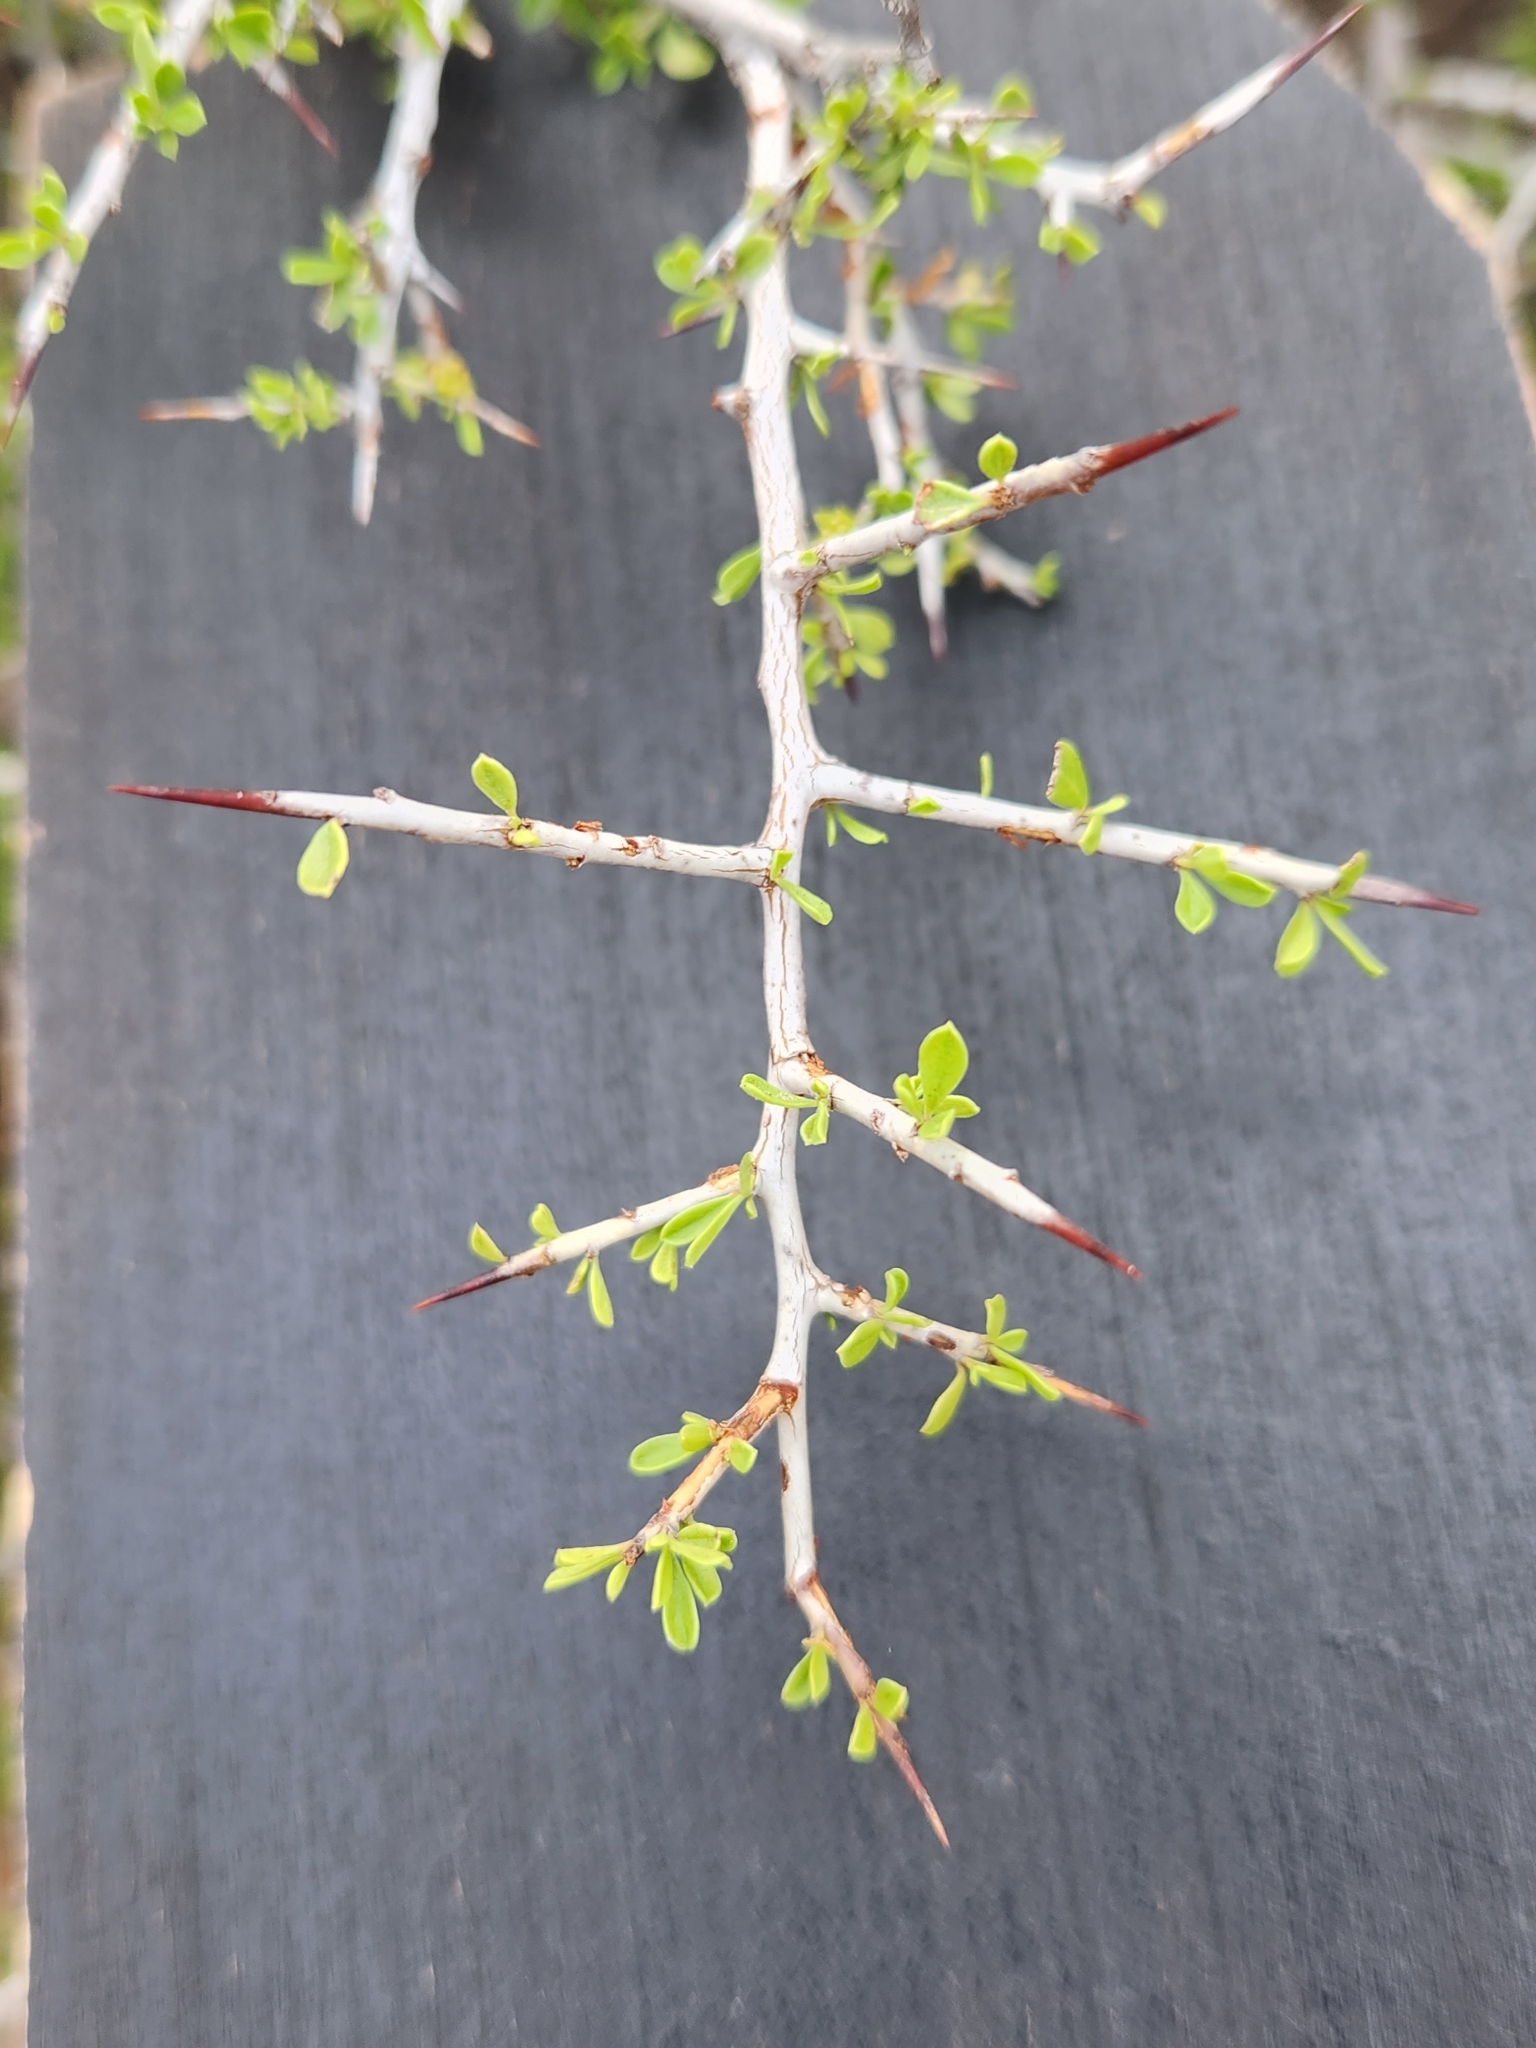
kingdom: Plantae
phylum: Tracheophyta
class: Magnoliopsida
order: Rosales
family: Rhamnaceae
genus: Condalia
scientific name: Condalia viridis
